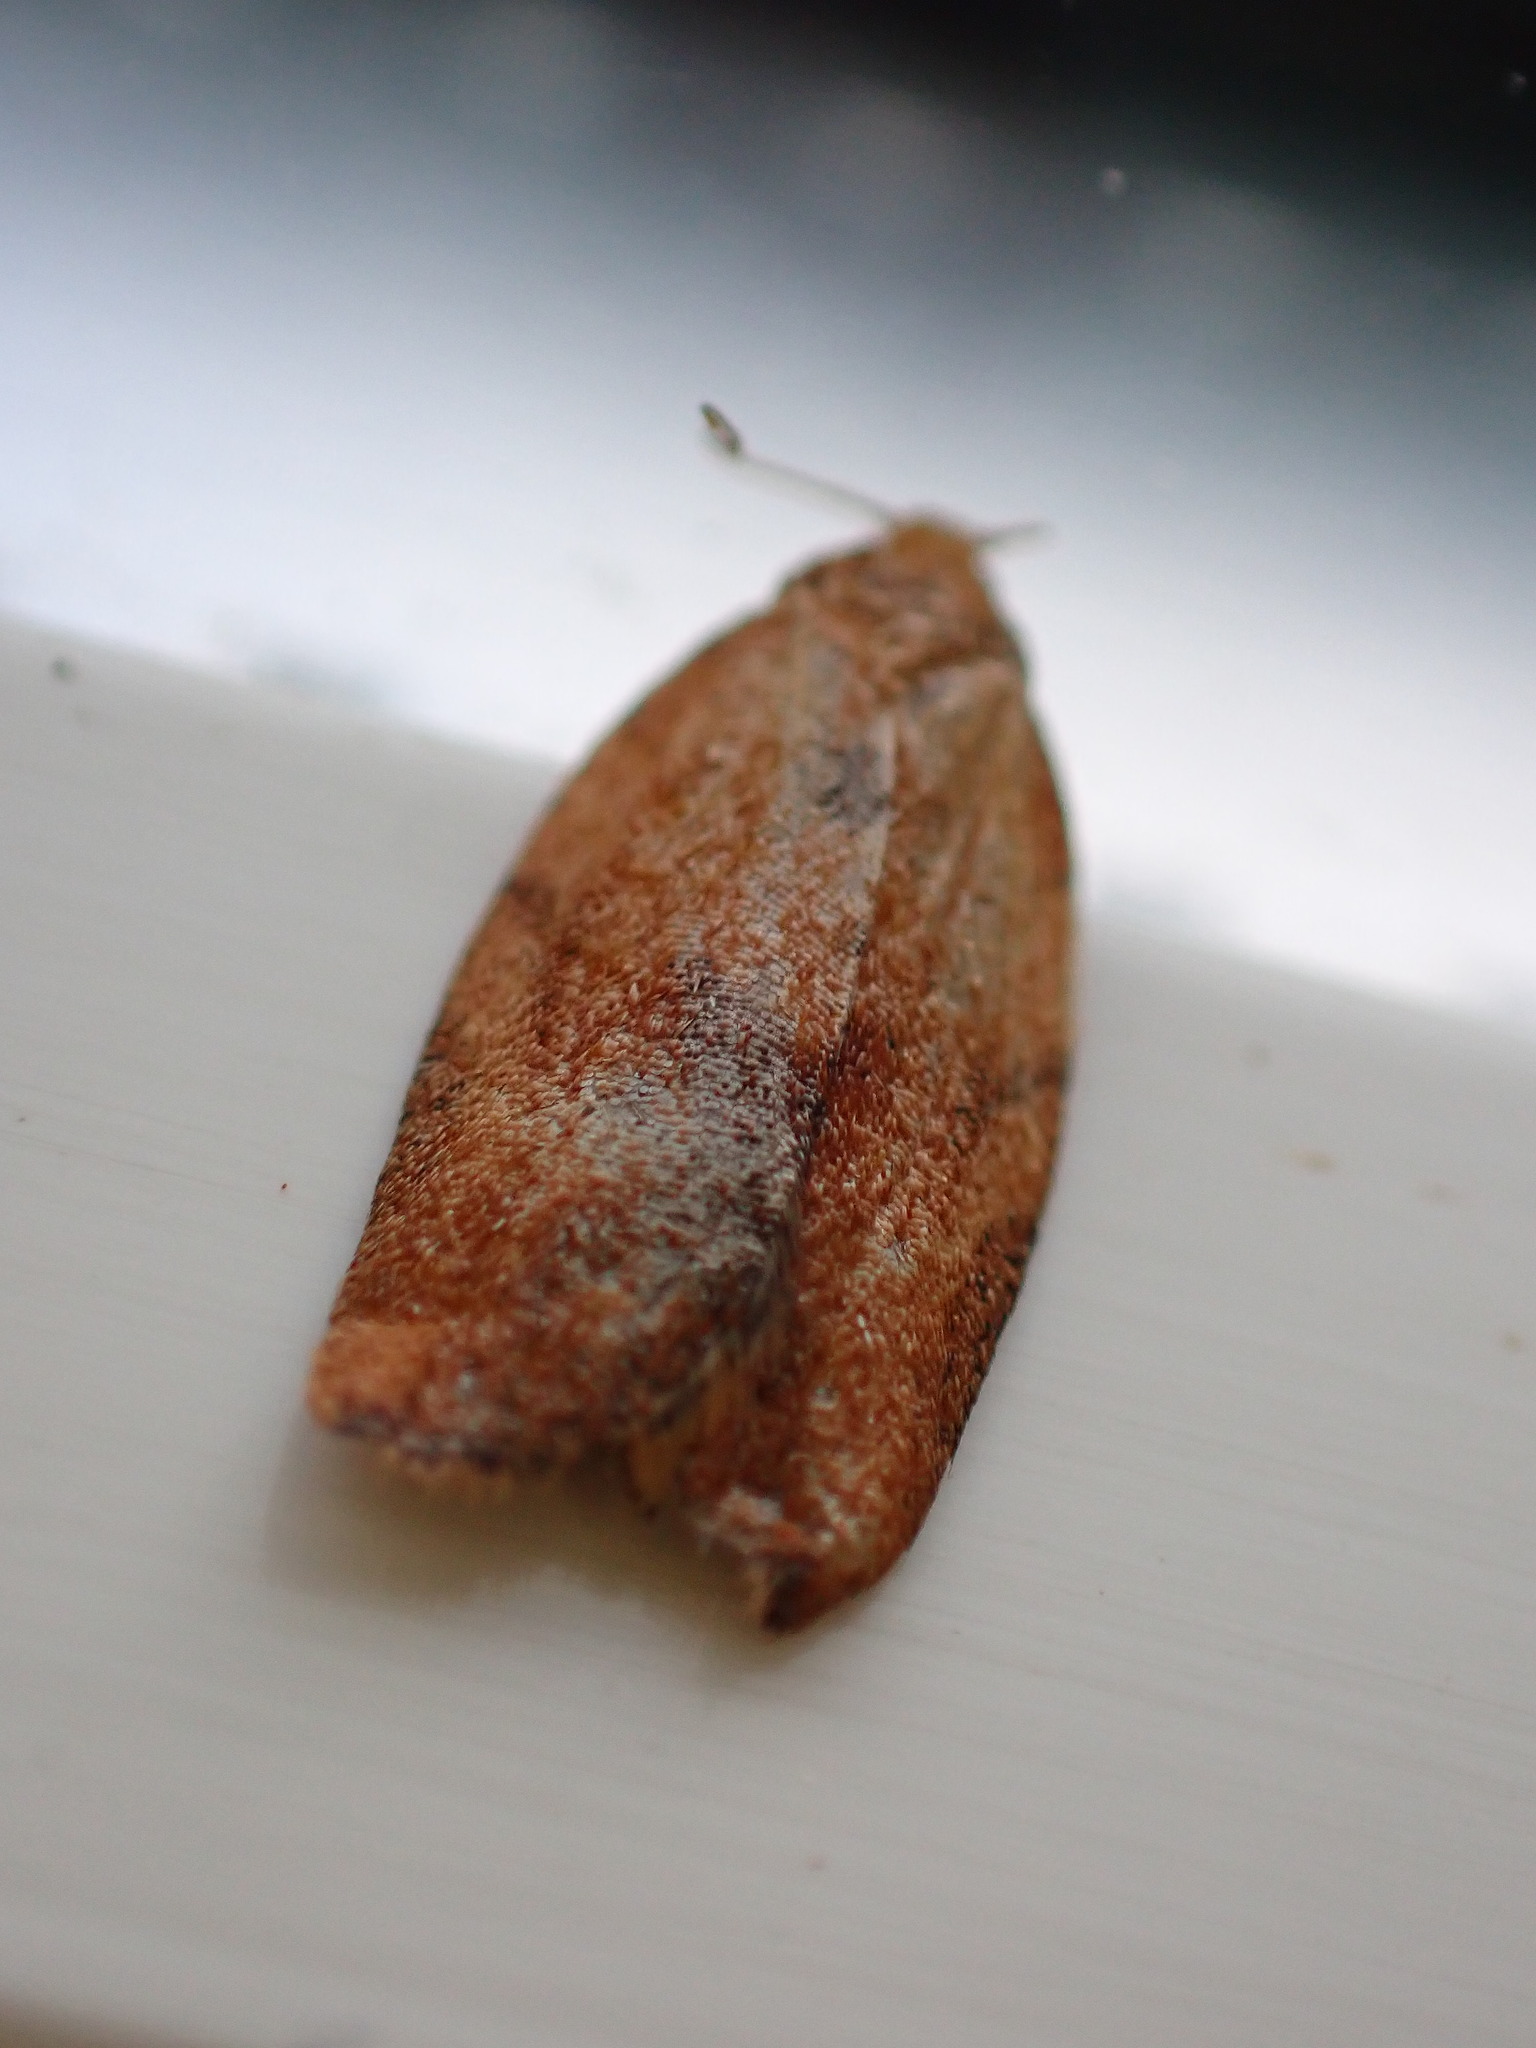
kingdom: Animalia
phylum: Arthropoda
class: Insecta
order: Lepidoptera
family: Tortricidae
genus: Clepsis
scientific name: Clepsis consimilana
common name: Privet tortrix
